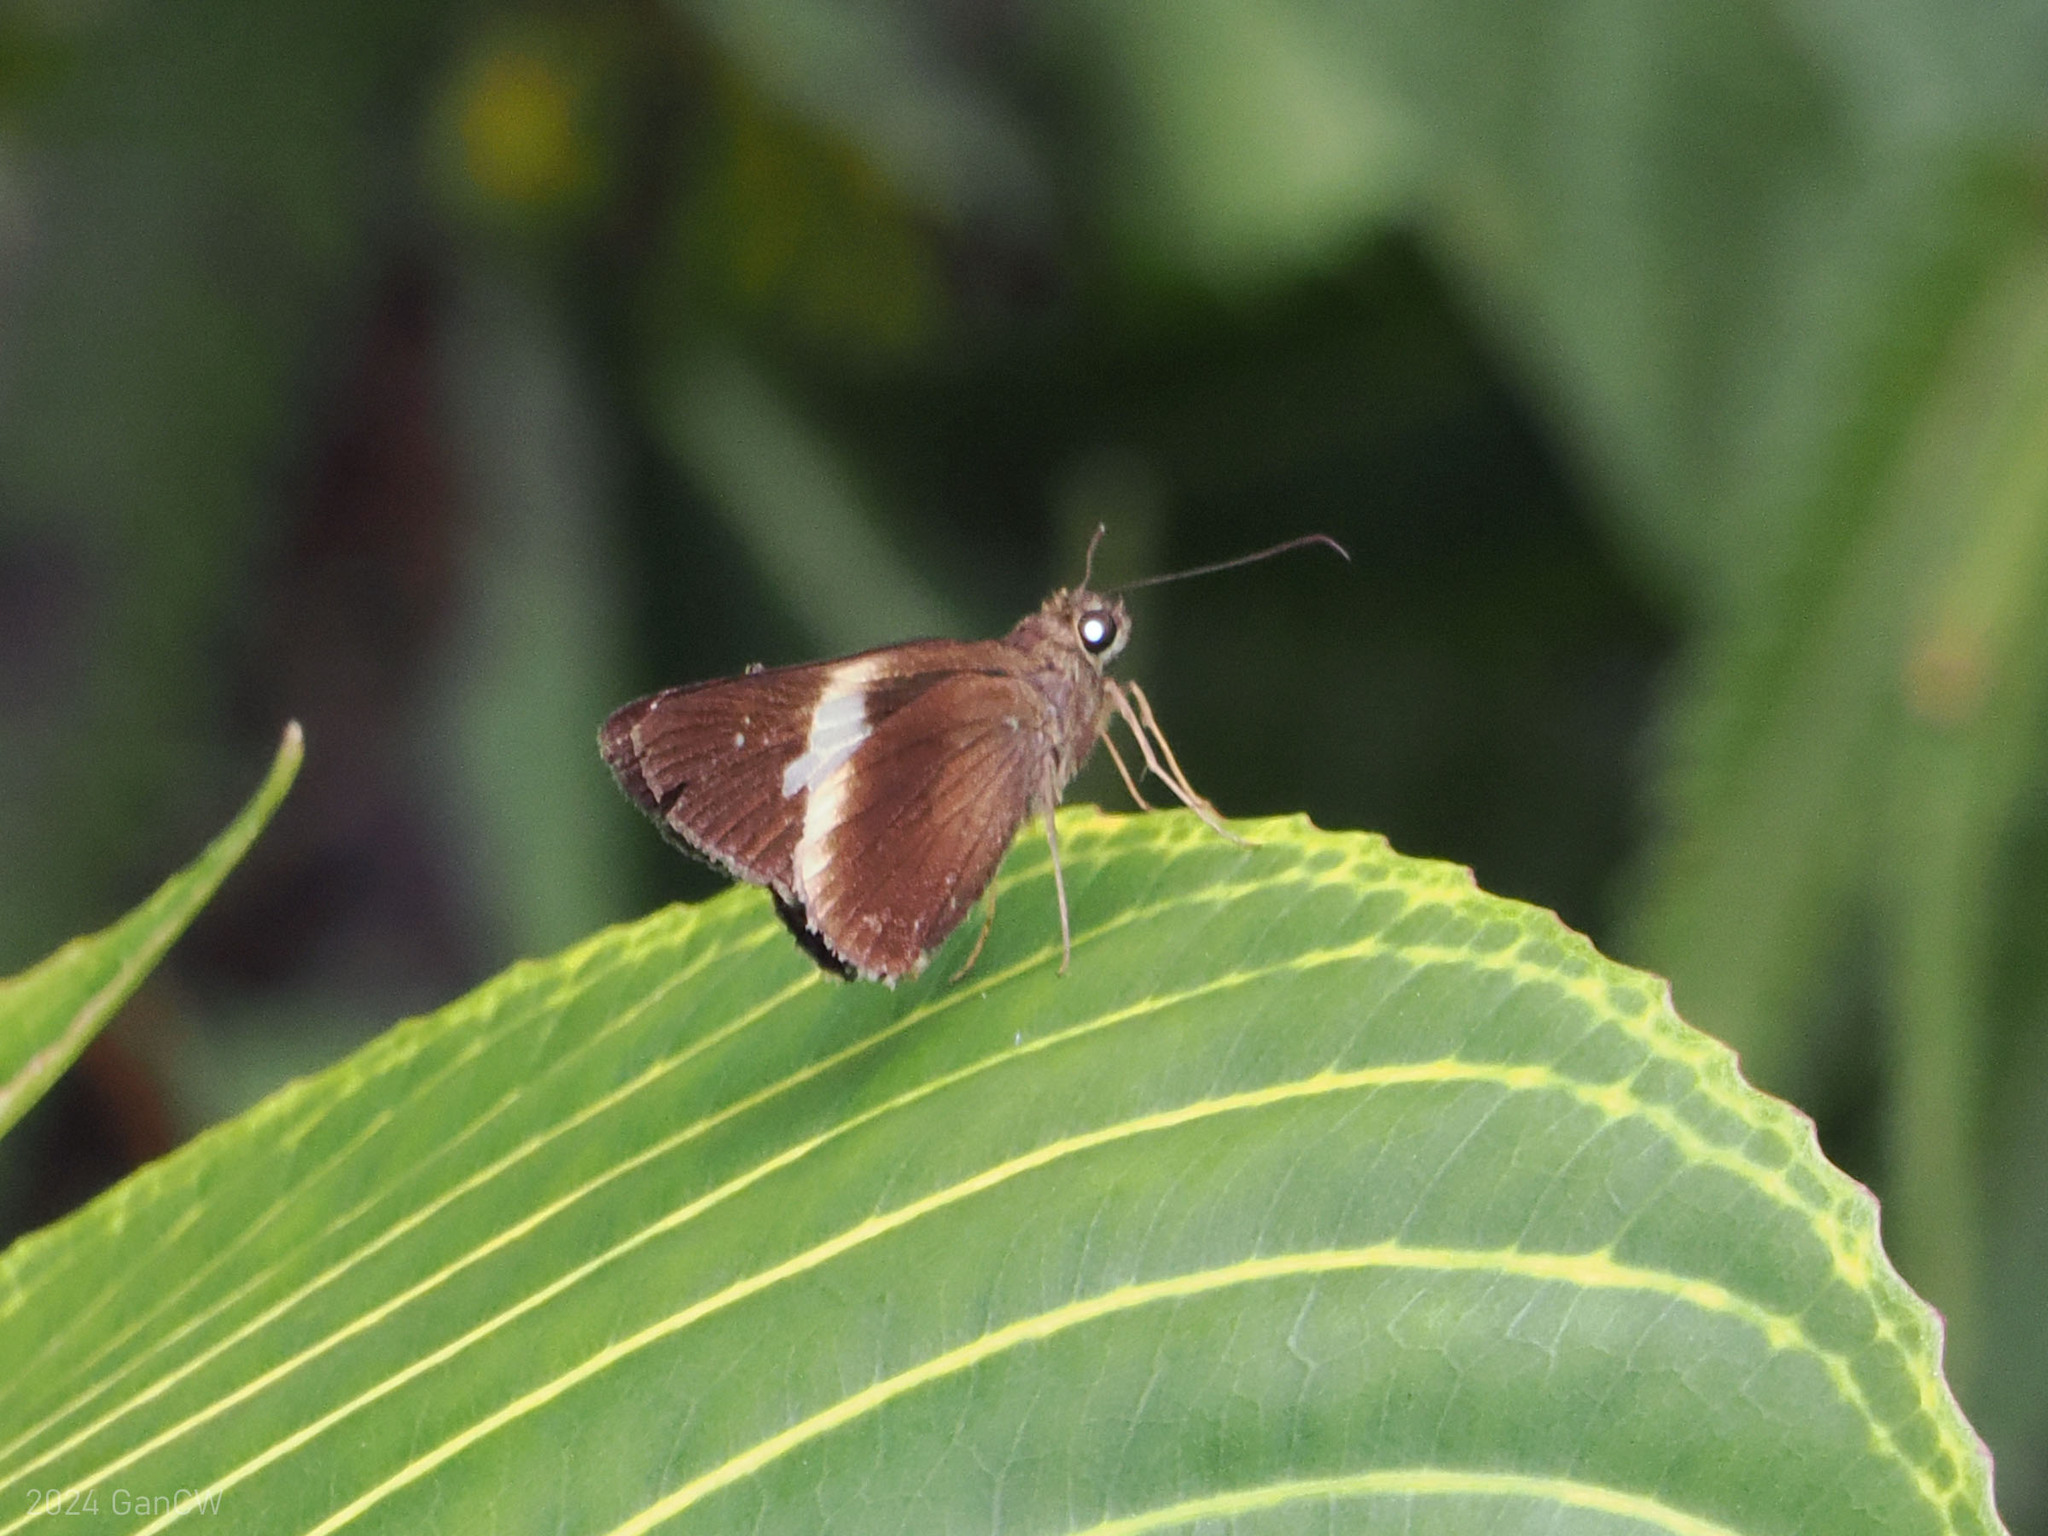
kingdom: Animalia
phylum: Arthropoda
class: Insecta
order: Lepidoptera
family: Hesperiidae
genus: Lotongus
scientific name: Lotongus calathus
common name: White-tipped palmer
